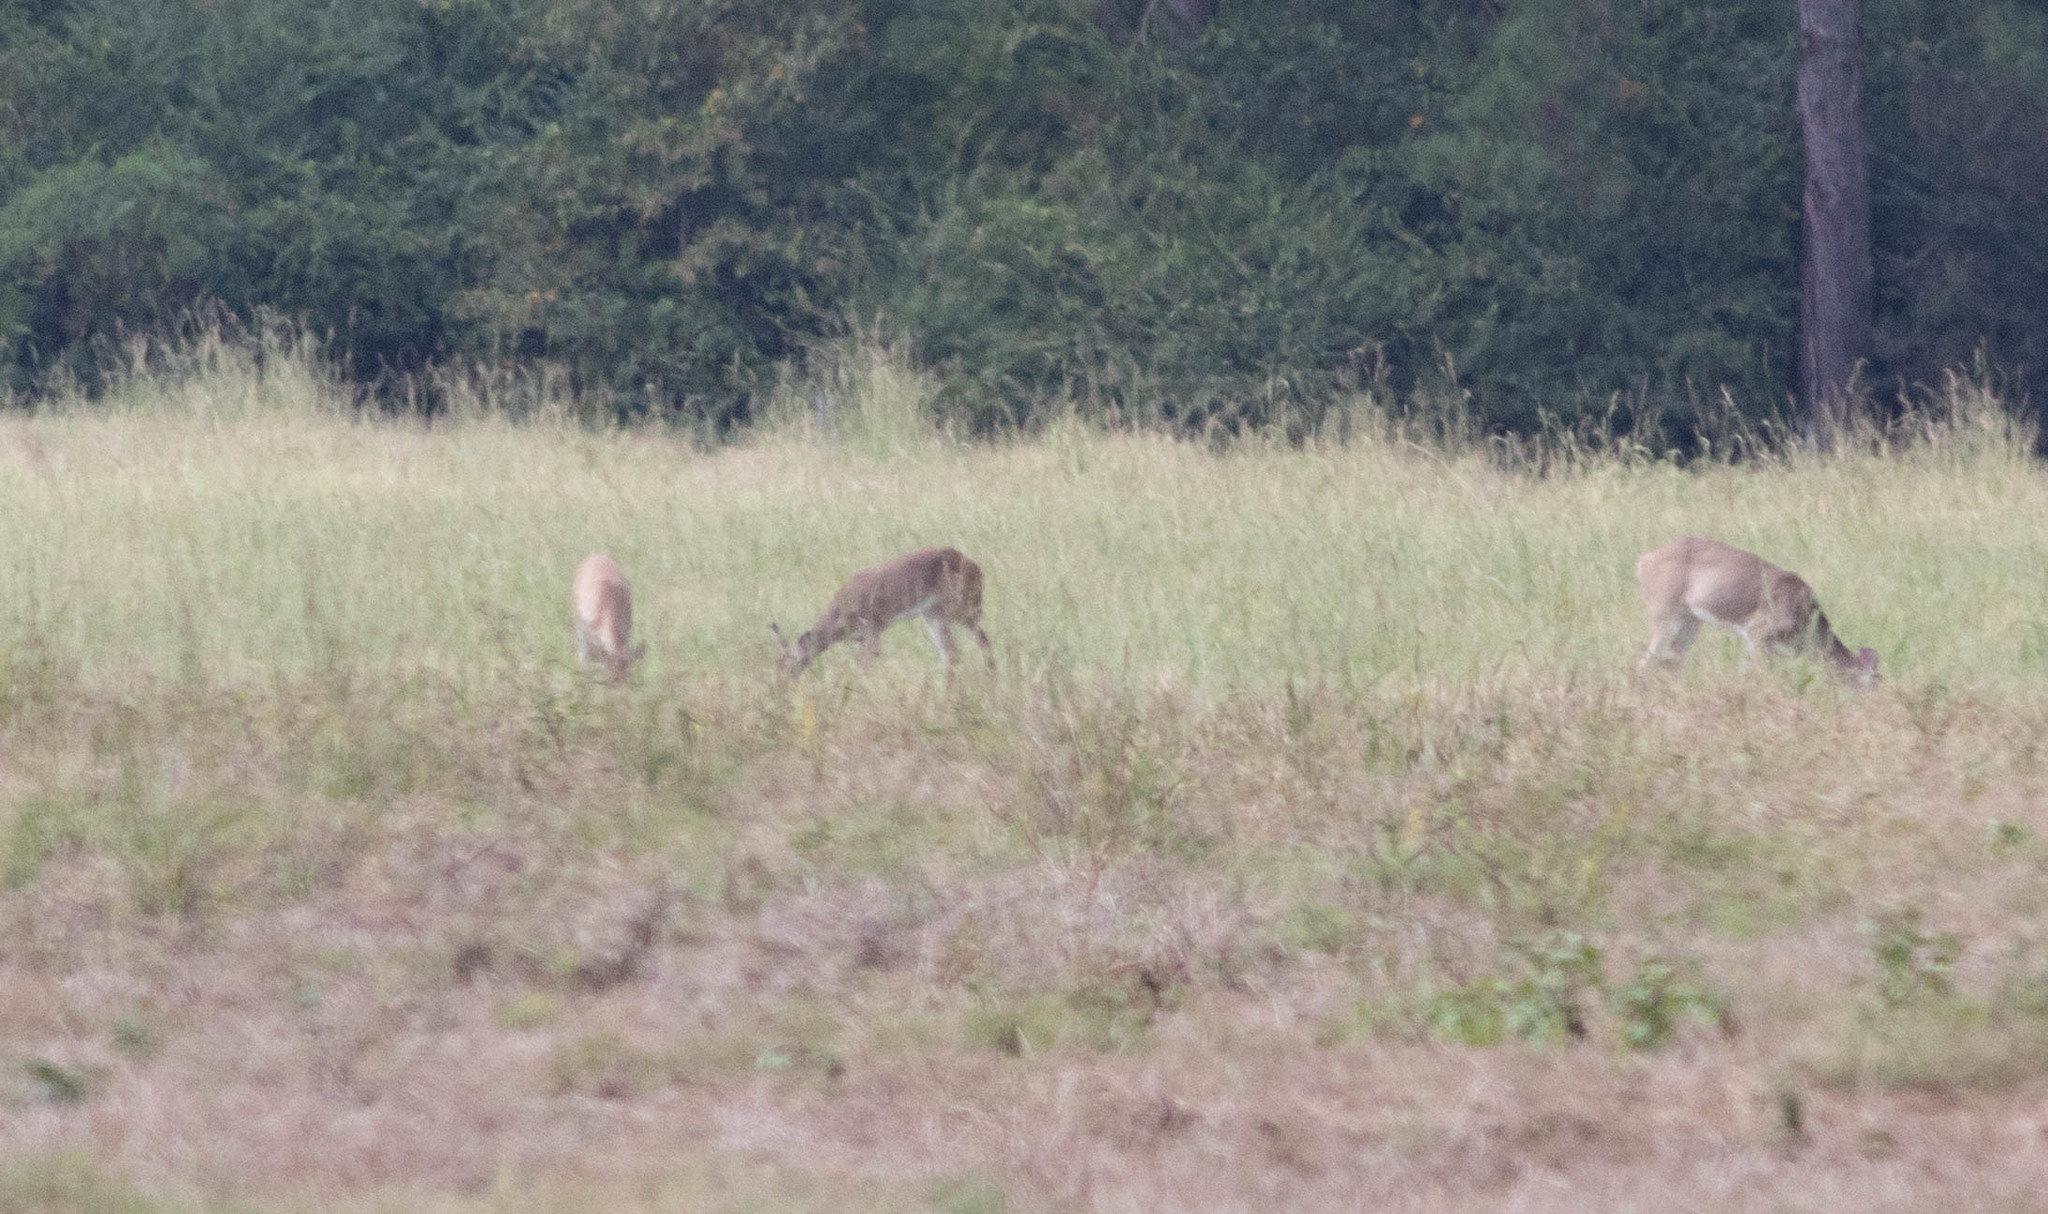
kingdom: Animalia
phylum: Chordata
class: Mammalia
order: Artiodactyla
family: Cervidae
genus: Odocoileus
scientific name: Odocoileus virginianus
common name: White-tailed deer
